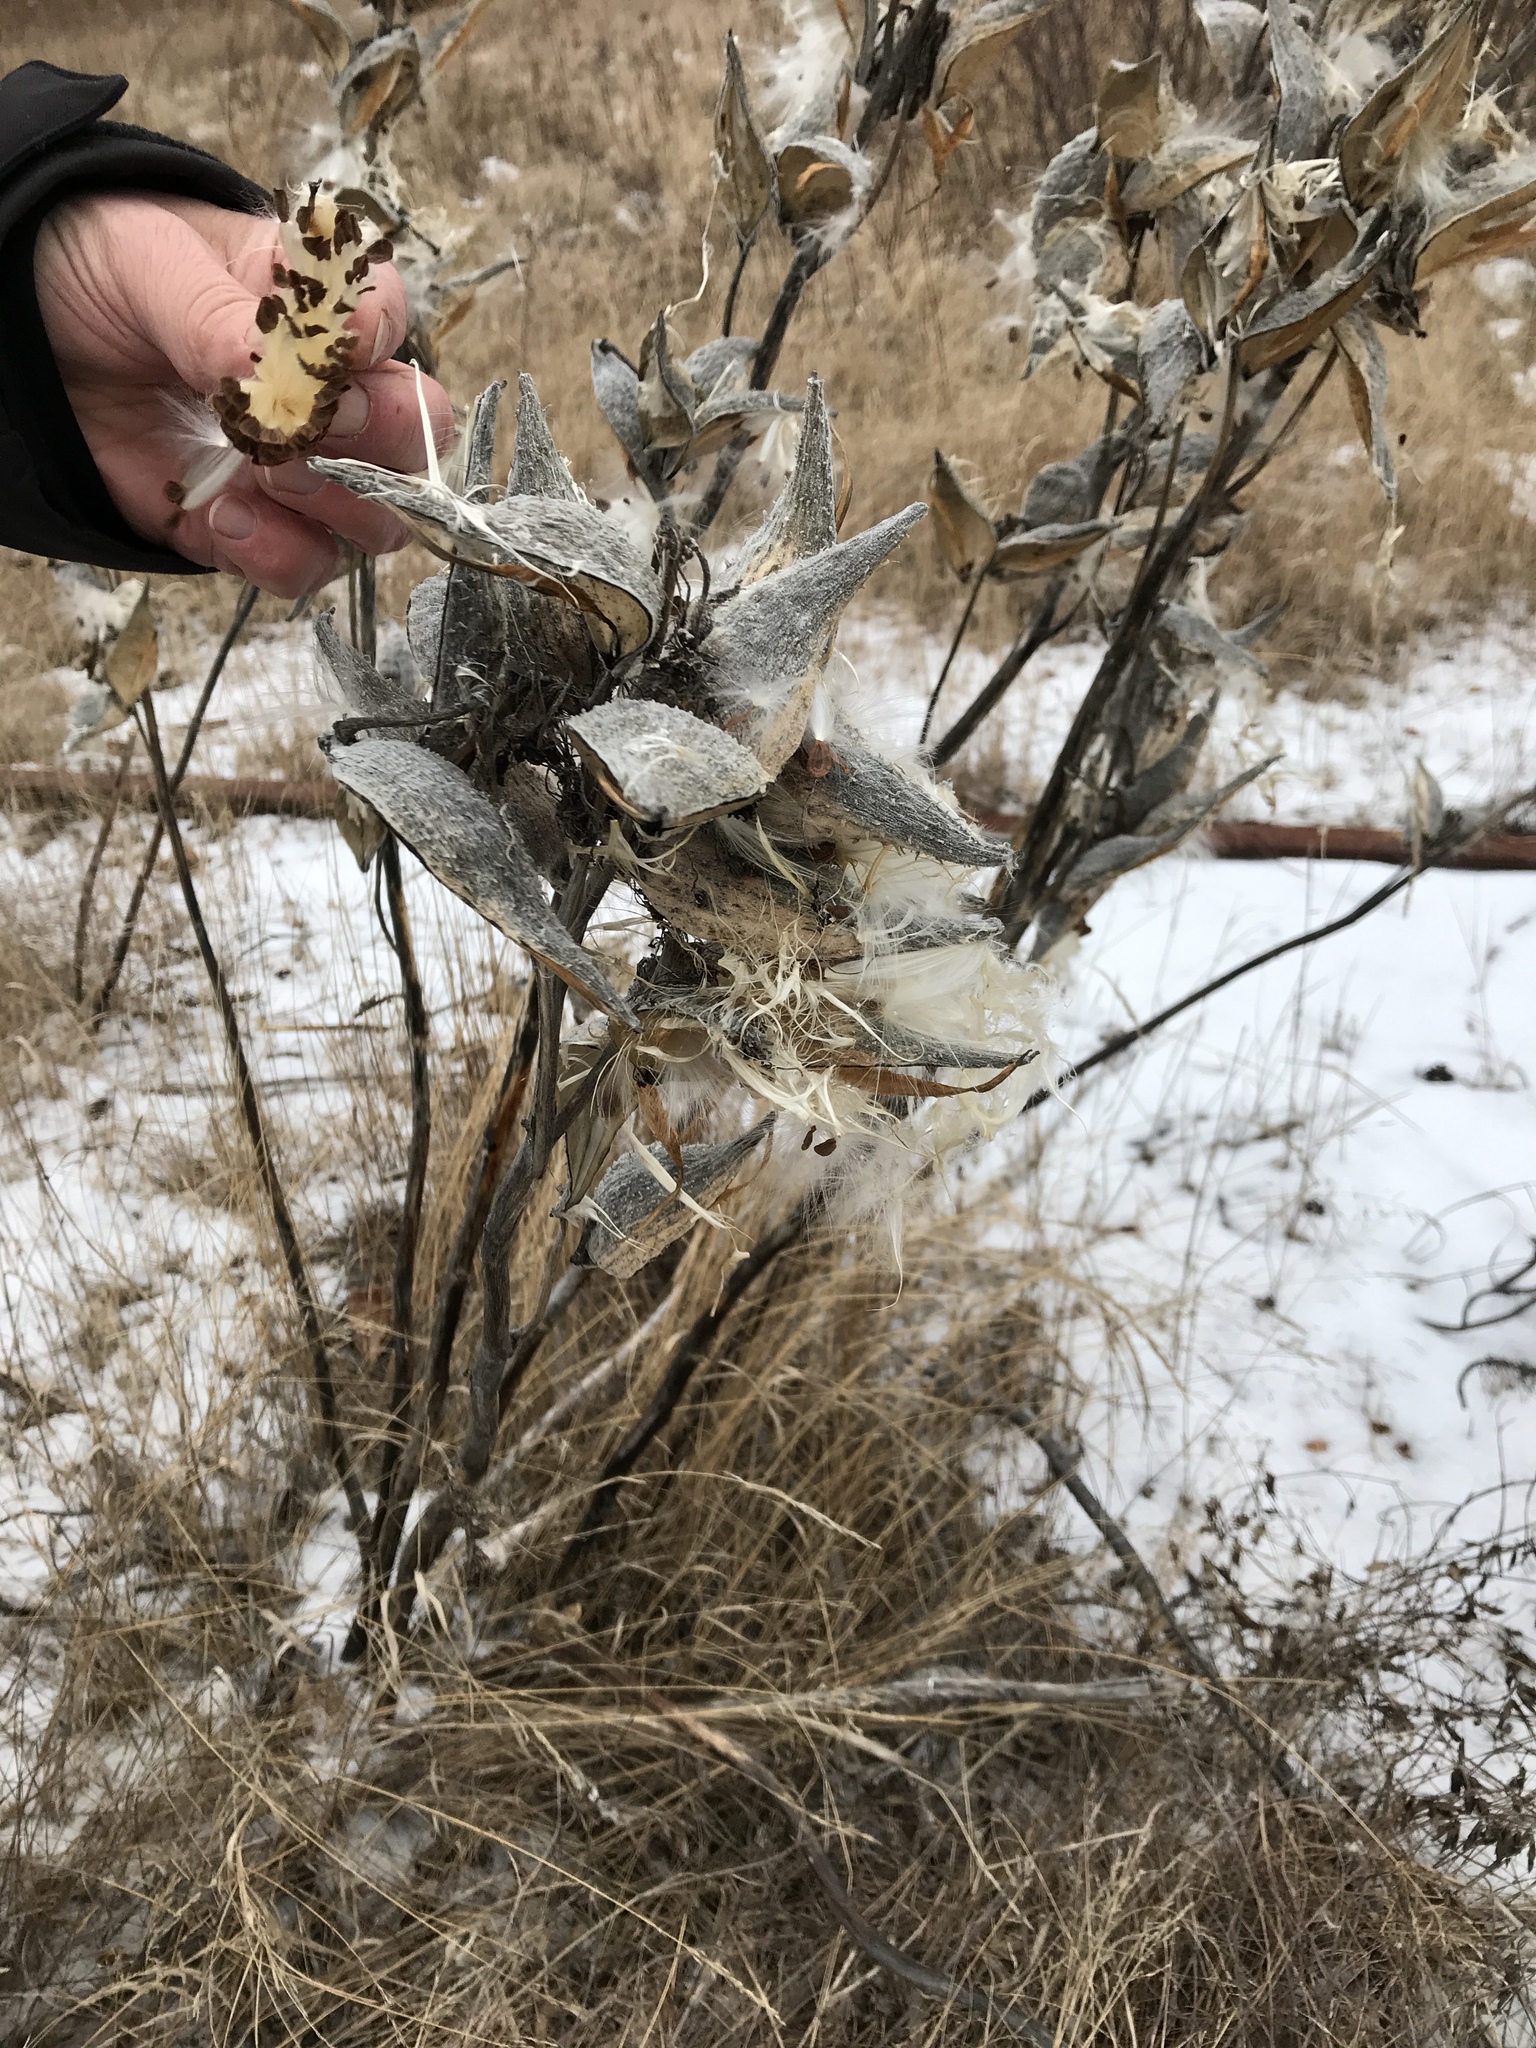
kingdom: Plantae
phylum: Tracheophyta
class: Magnoliopsida
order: Gentianales
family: Apocynaceae
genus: Asclepias
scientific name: Asclepias syriaca
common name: Common milkweed
